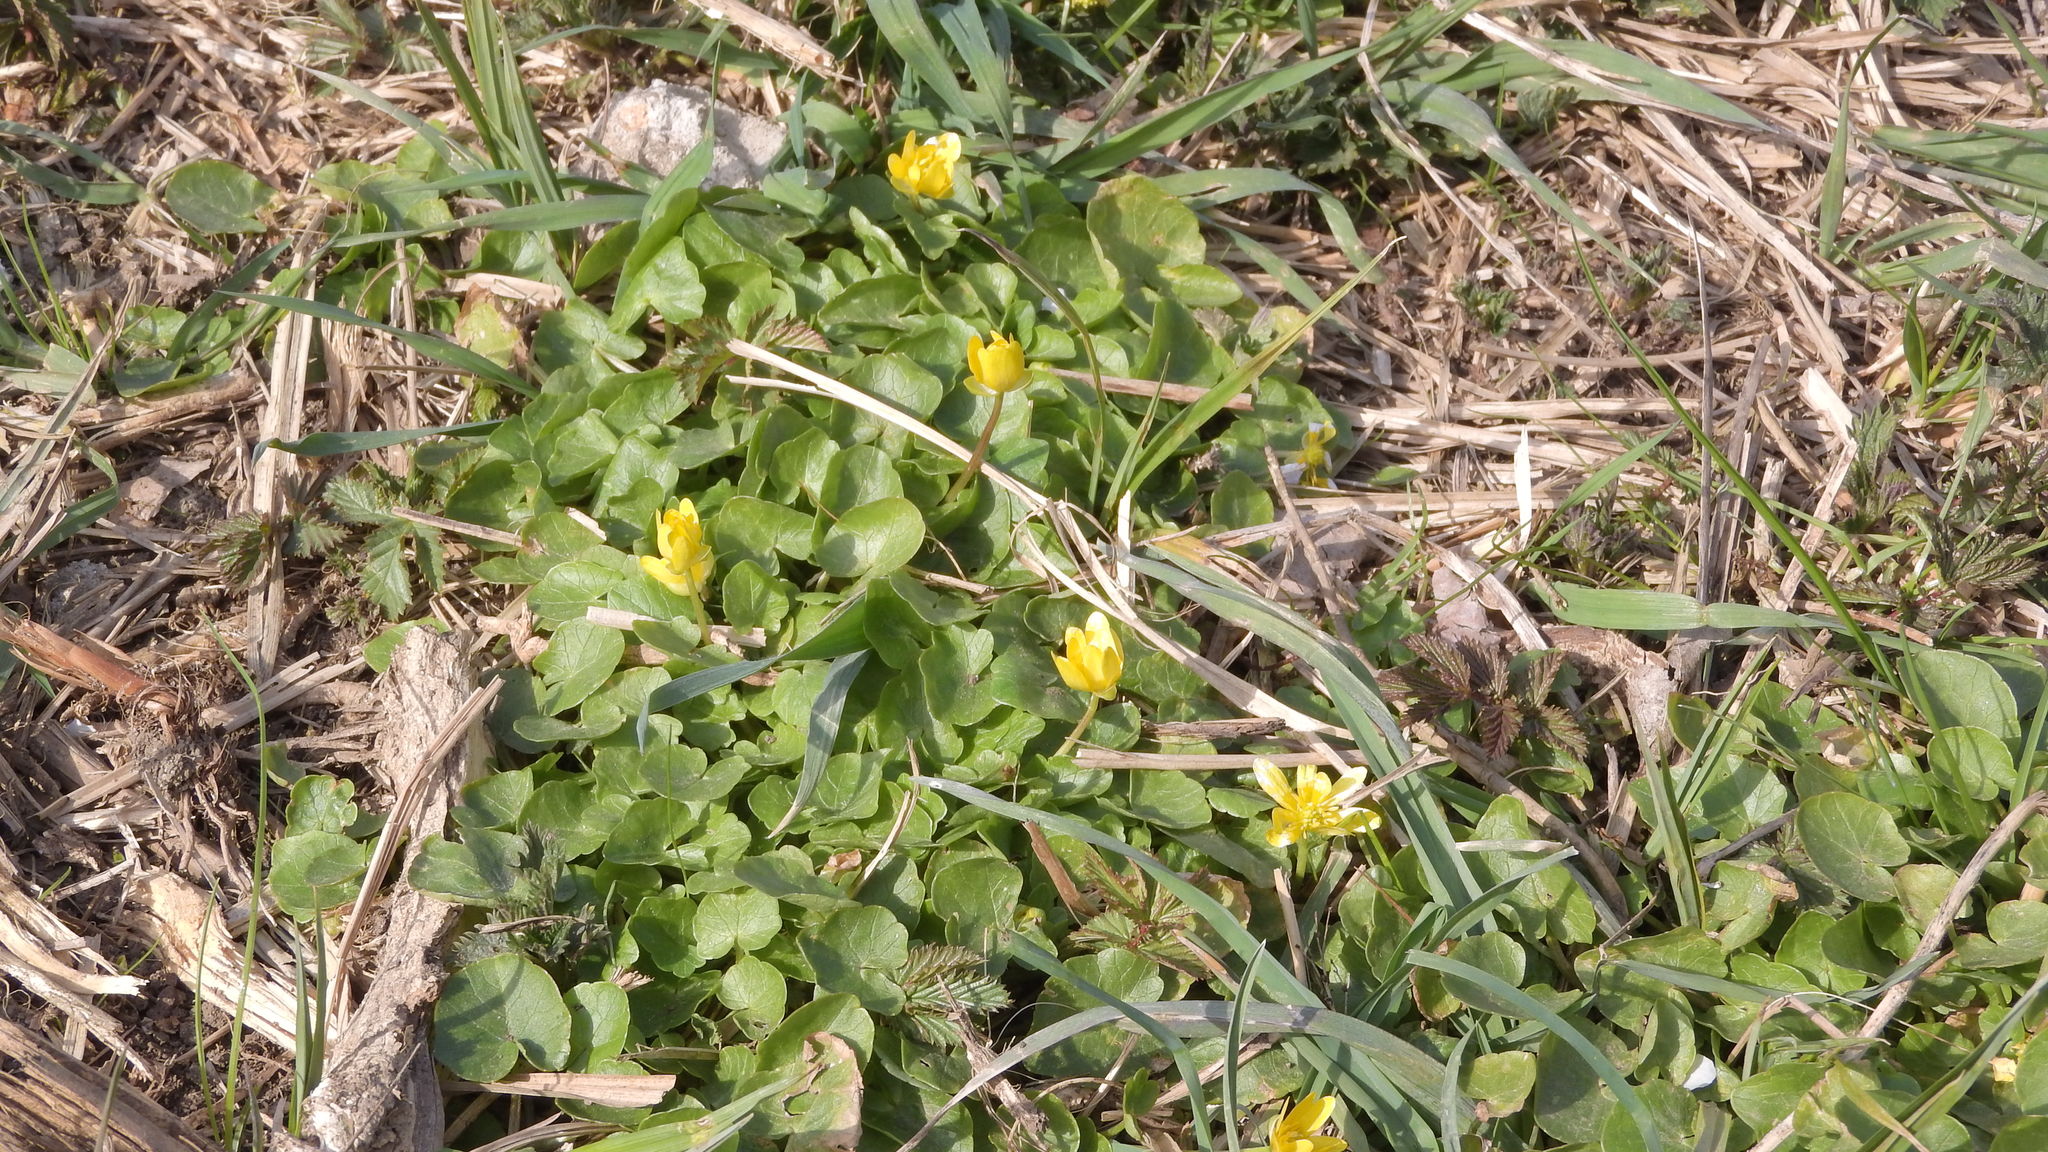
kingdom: Plantae
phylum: Tracheophyta
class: Magnoliopsida
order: Ranunculales
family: Ranunculaceae
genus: Ficaria
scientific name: Ficaria verna
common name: Lesser celandine
